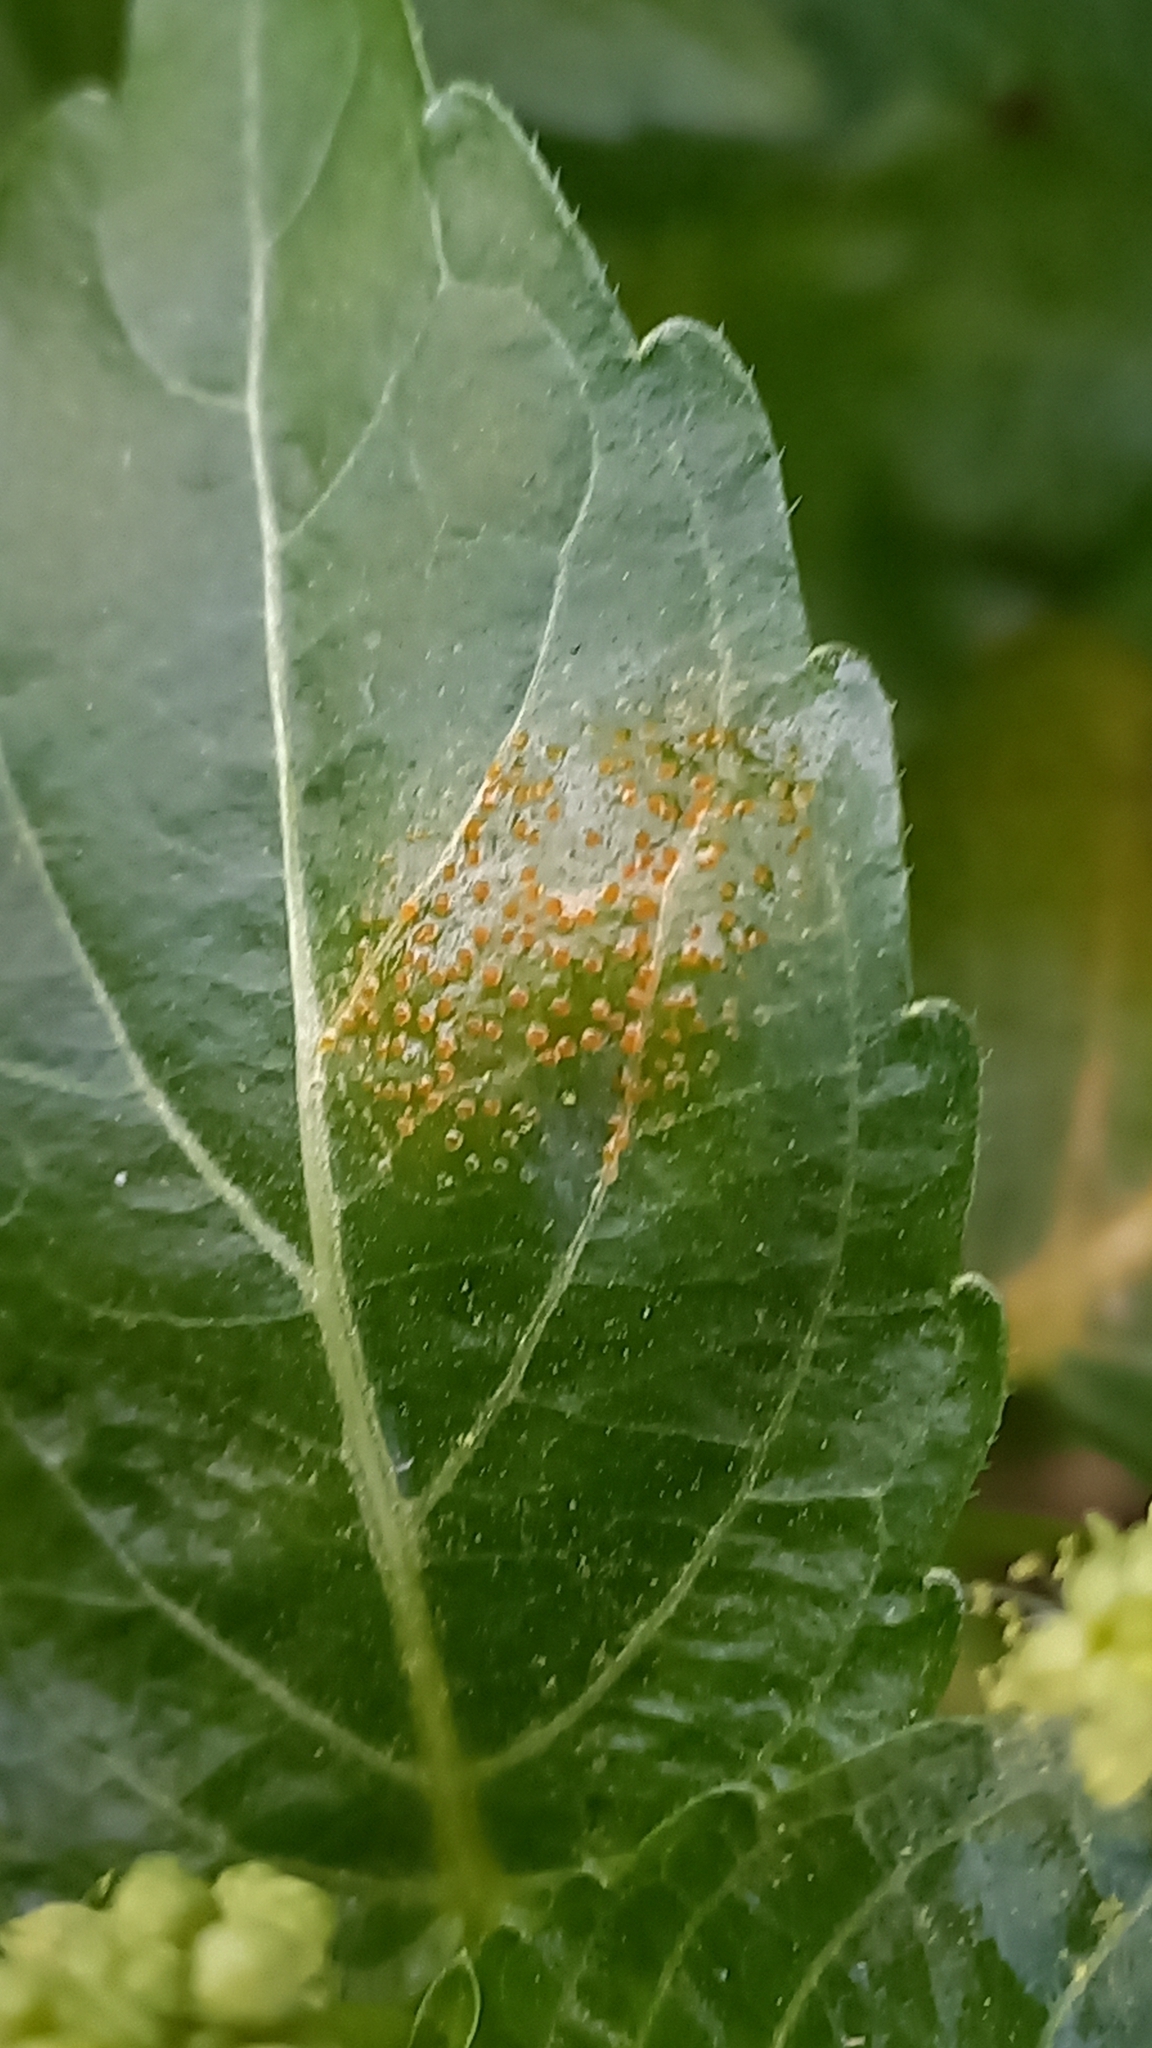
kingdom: Fungi
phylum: Basidiomycota
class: Pucciniomycetes
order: Pucciniales
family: Melampsoraceae
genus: Melampsora
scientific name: Melampsora pulcherrima
